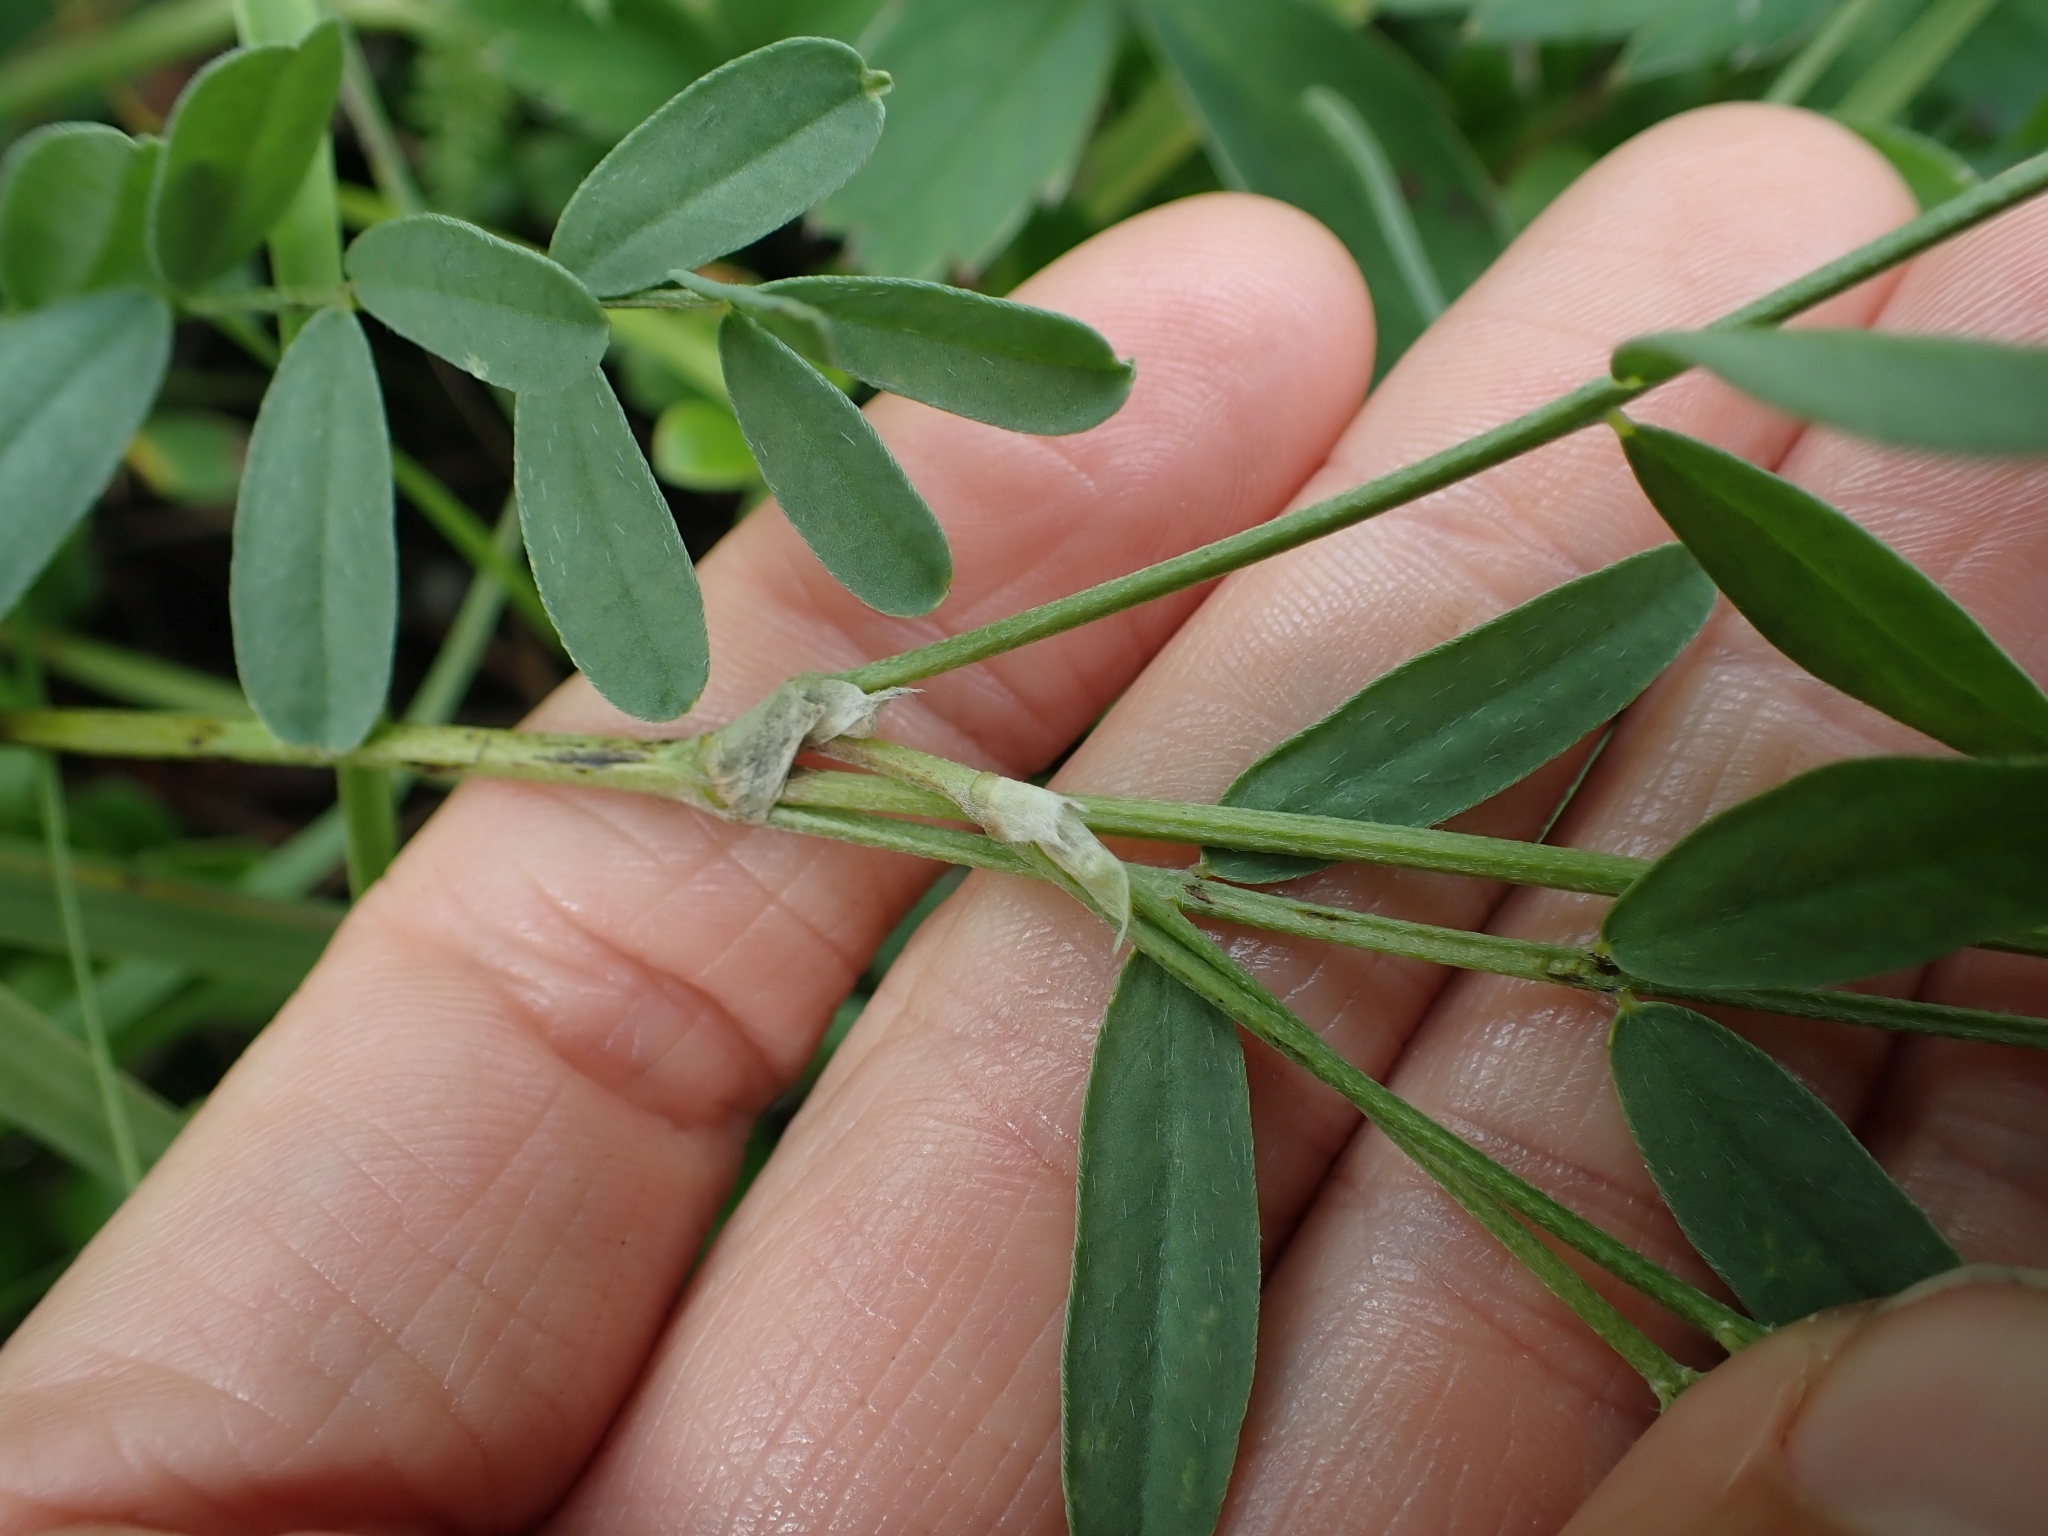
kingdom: Plantae
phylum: Tracheophyta
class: Magnoliopsida
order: Fabales
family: Fabaceae
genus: Astragalus
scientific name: Astragalus laxmannii
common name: Laxmann's milk-vetch
